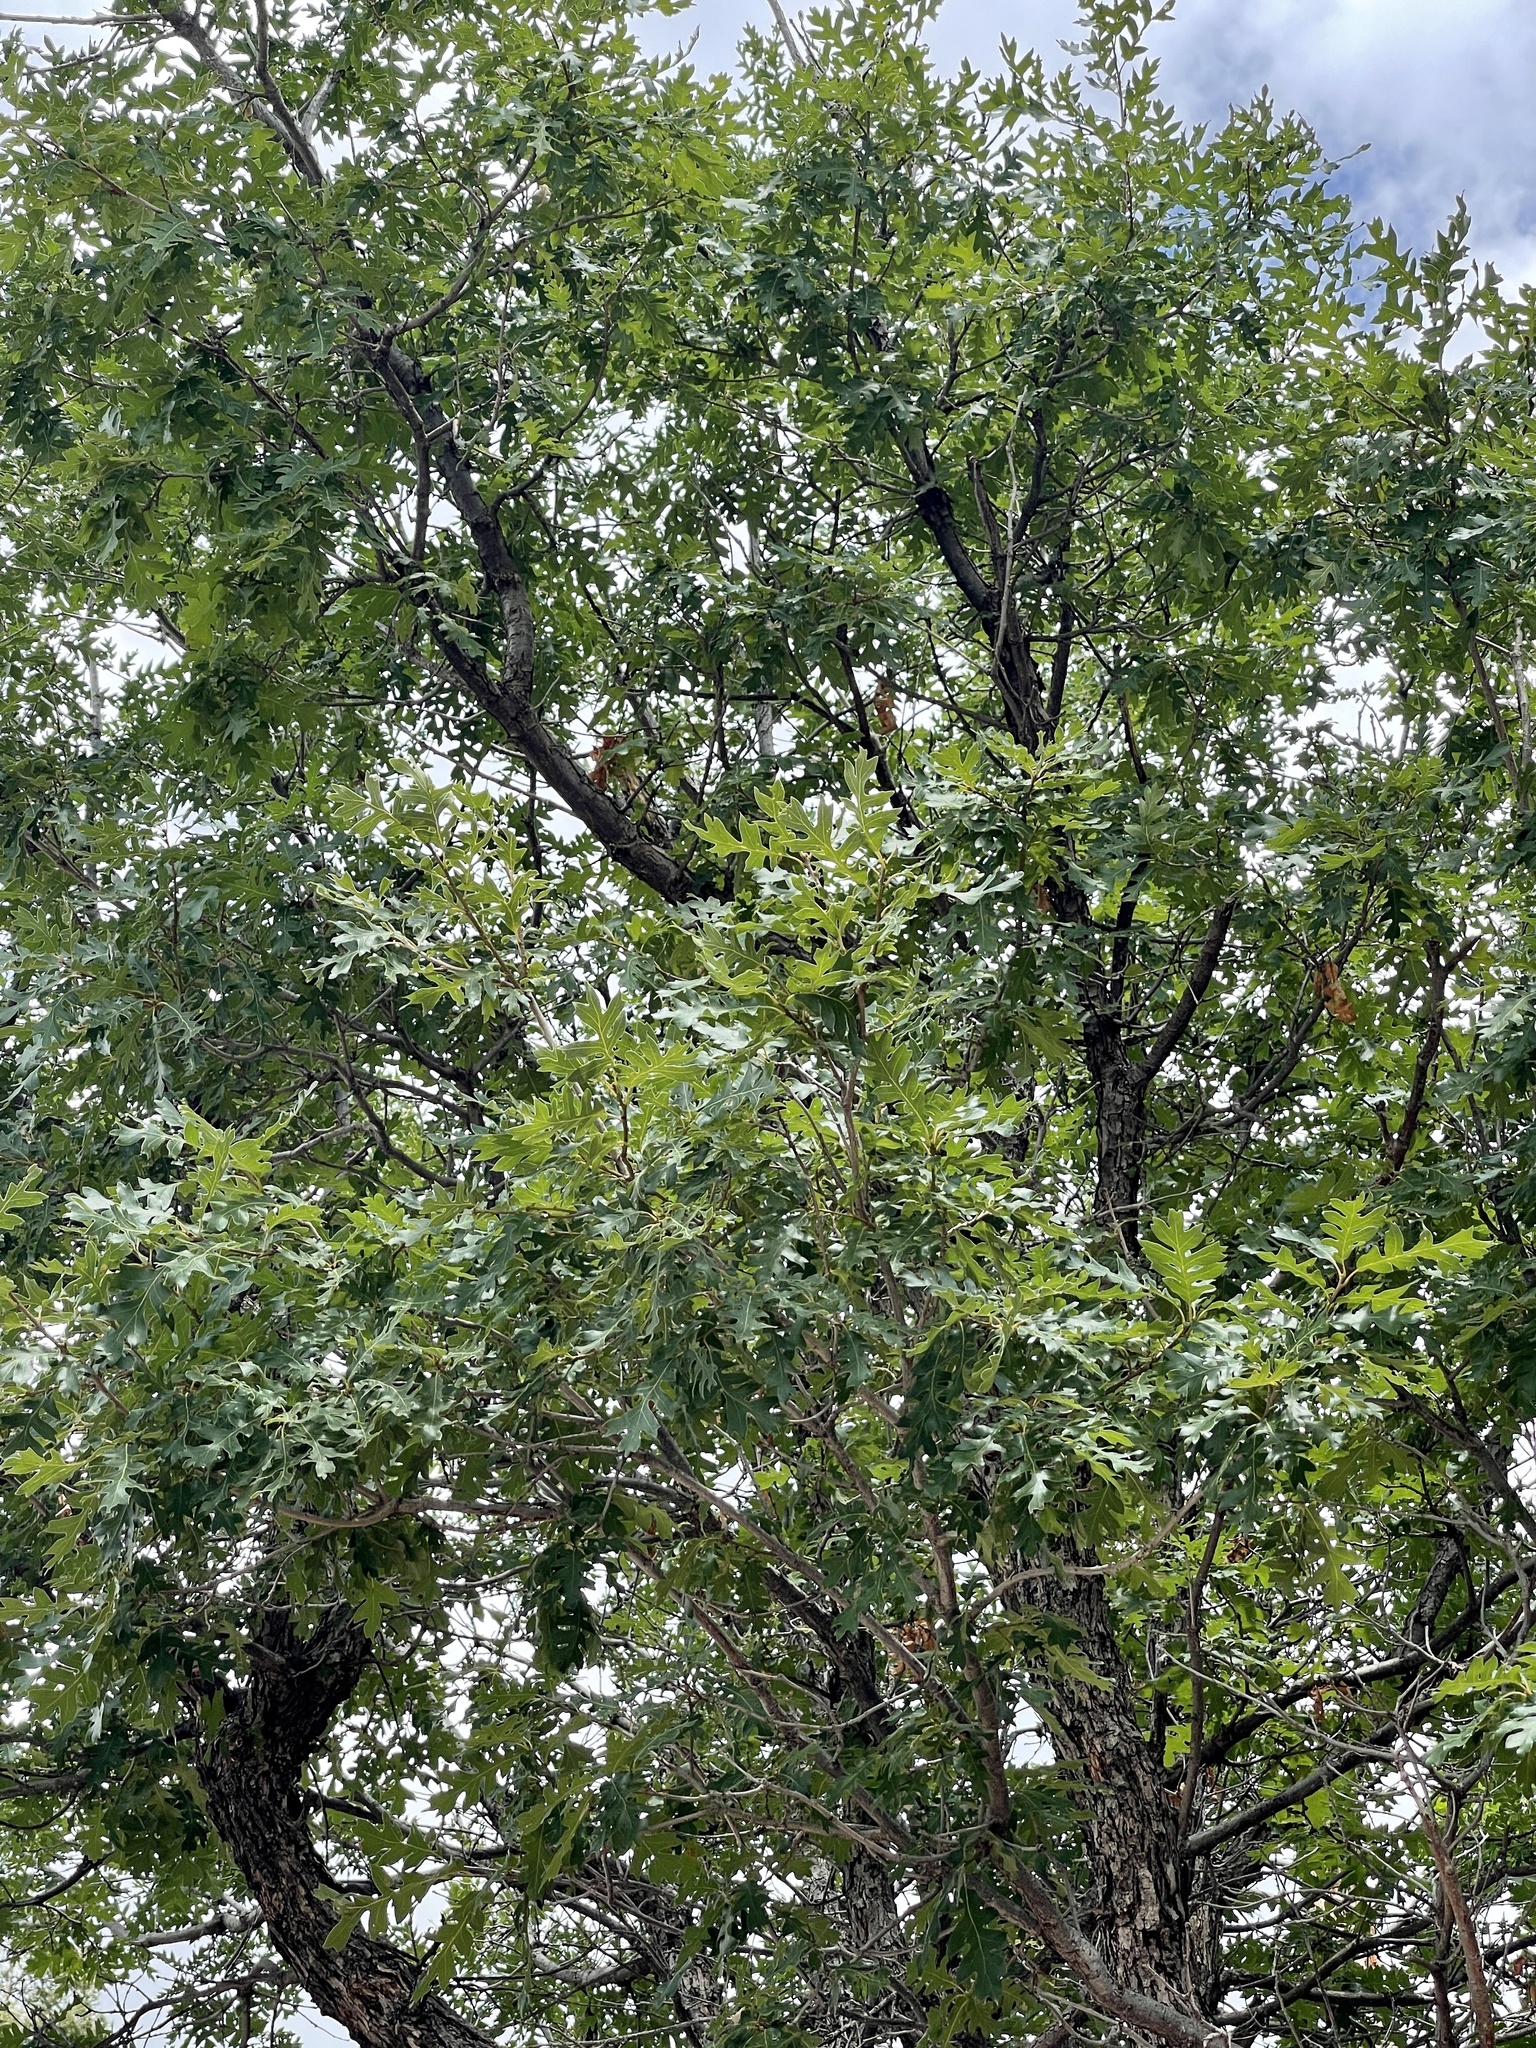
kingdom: Plantae
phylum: Tracheophyta
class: Magnoliopsida
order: Fagales
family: Fagaceae
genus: Quercus
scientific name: Quercus gambelii
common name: Gambel oak
